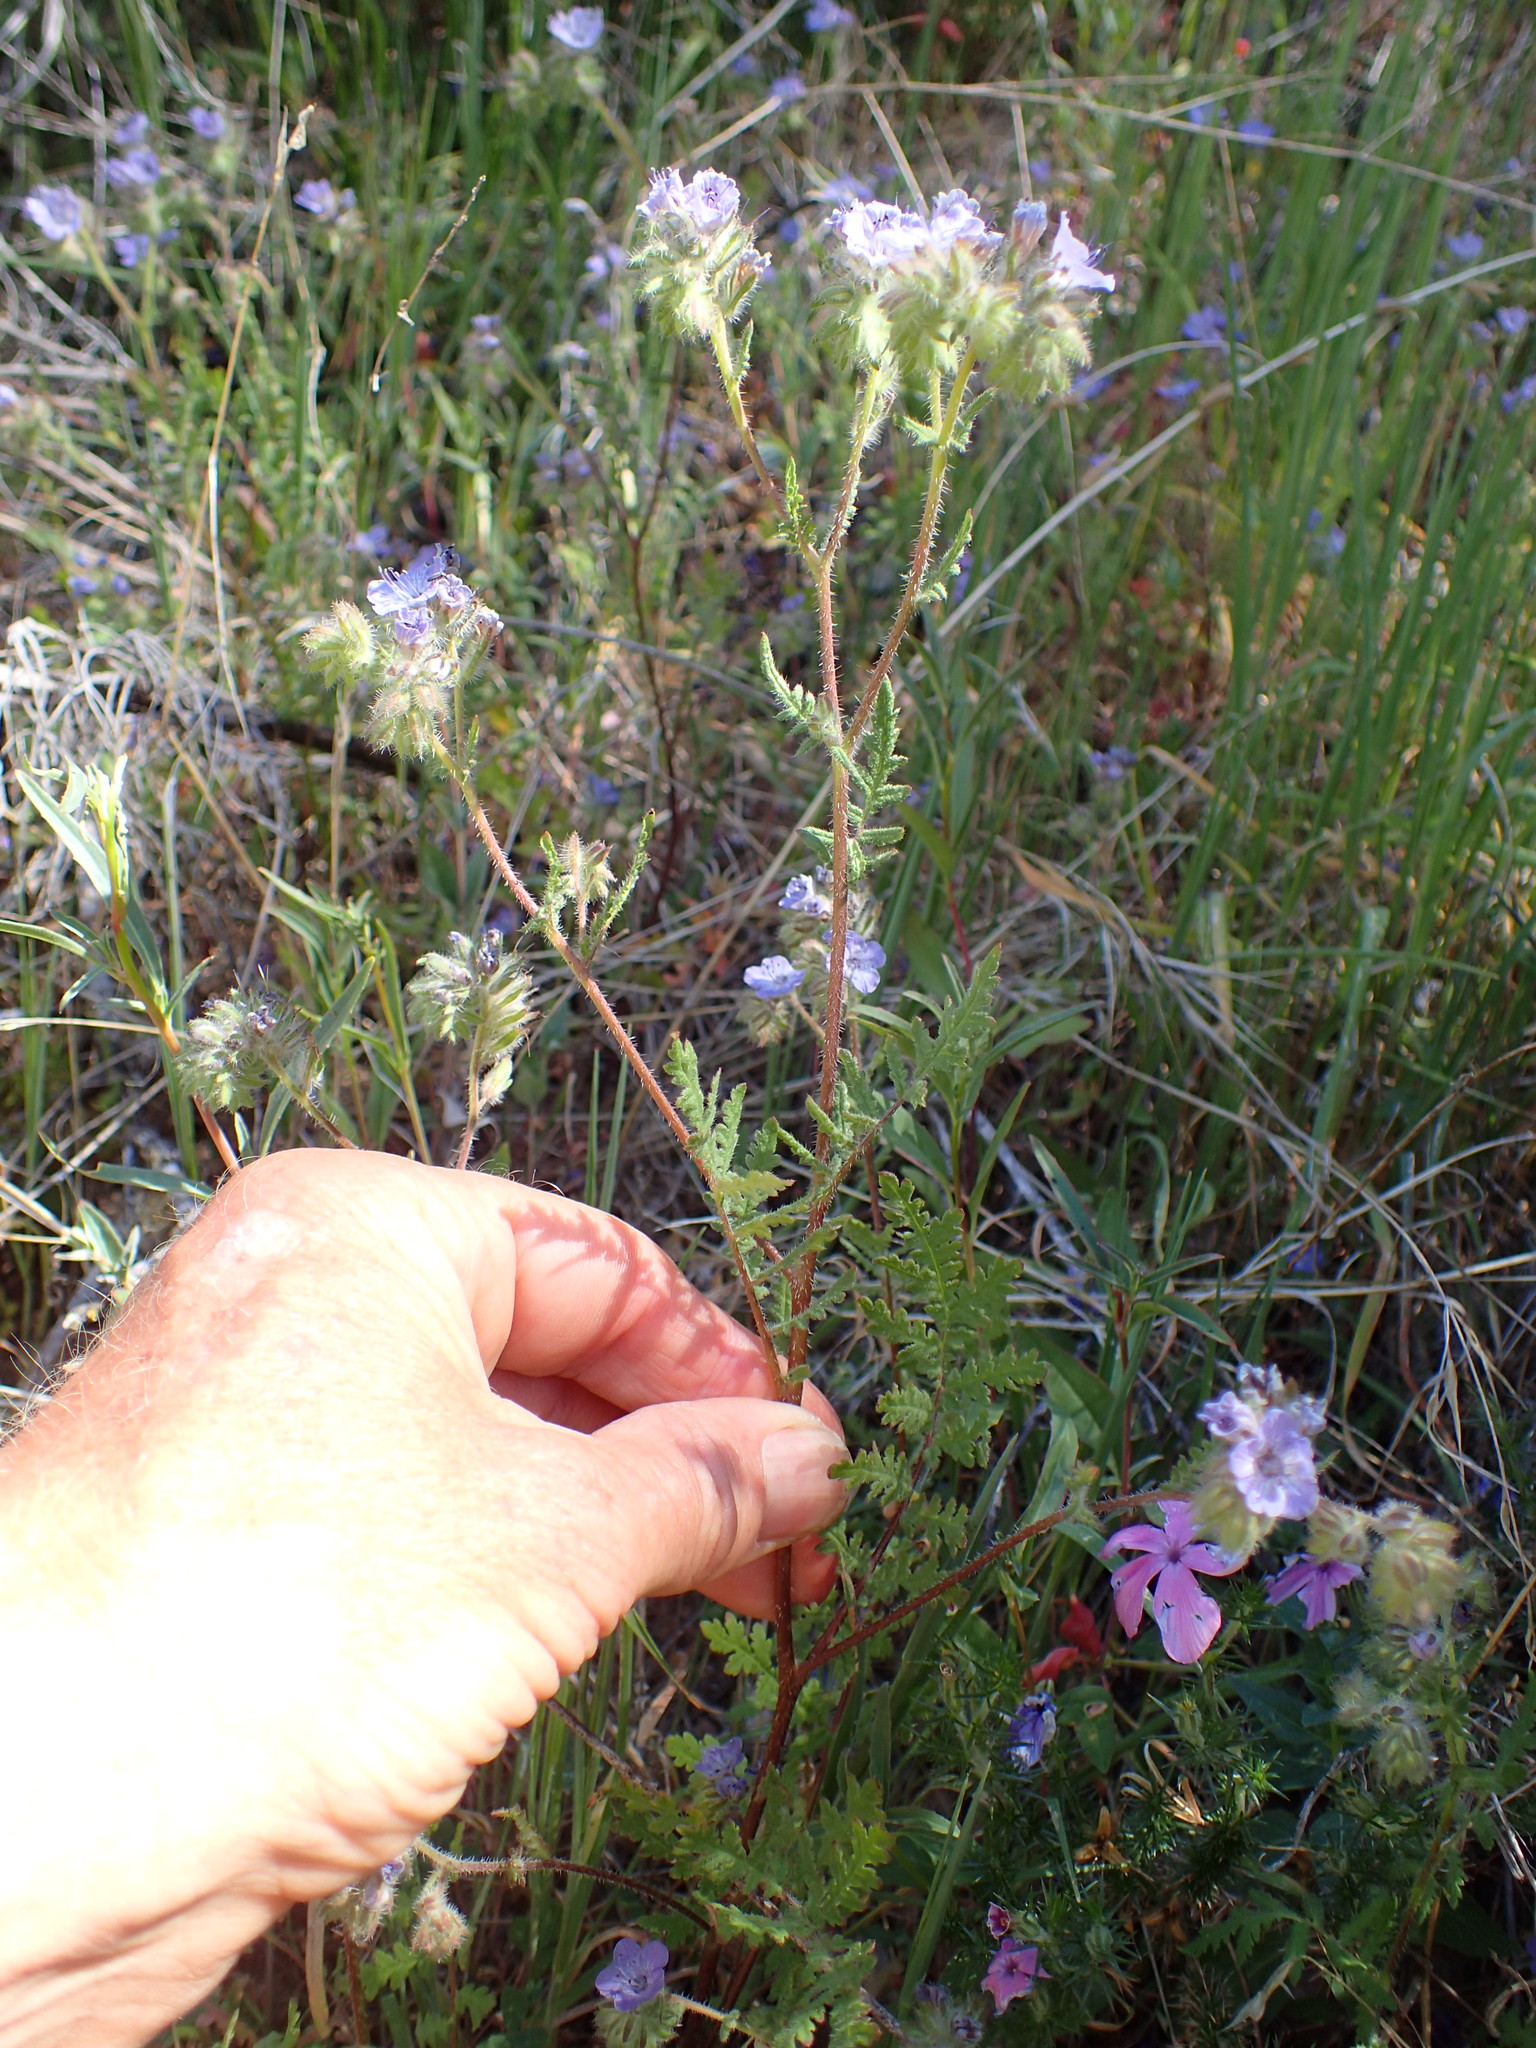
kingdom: Plantae
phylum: Tracheophyta
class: Magnoliopsida
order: Boraginales
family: Hydrophyllaceae
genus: Phacelia
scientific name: Phacelia distans
